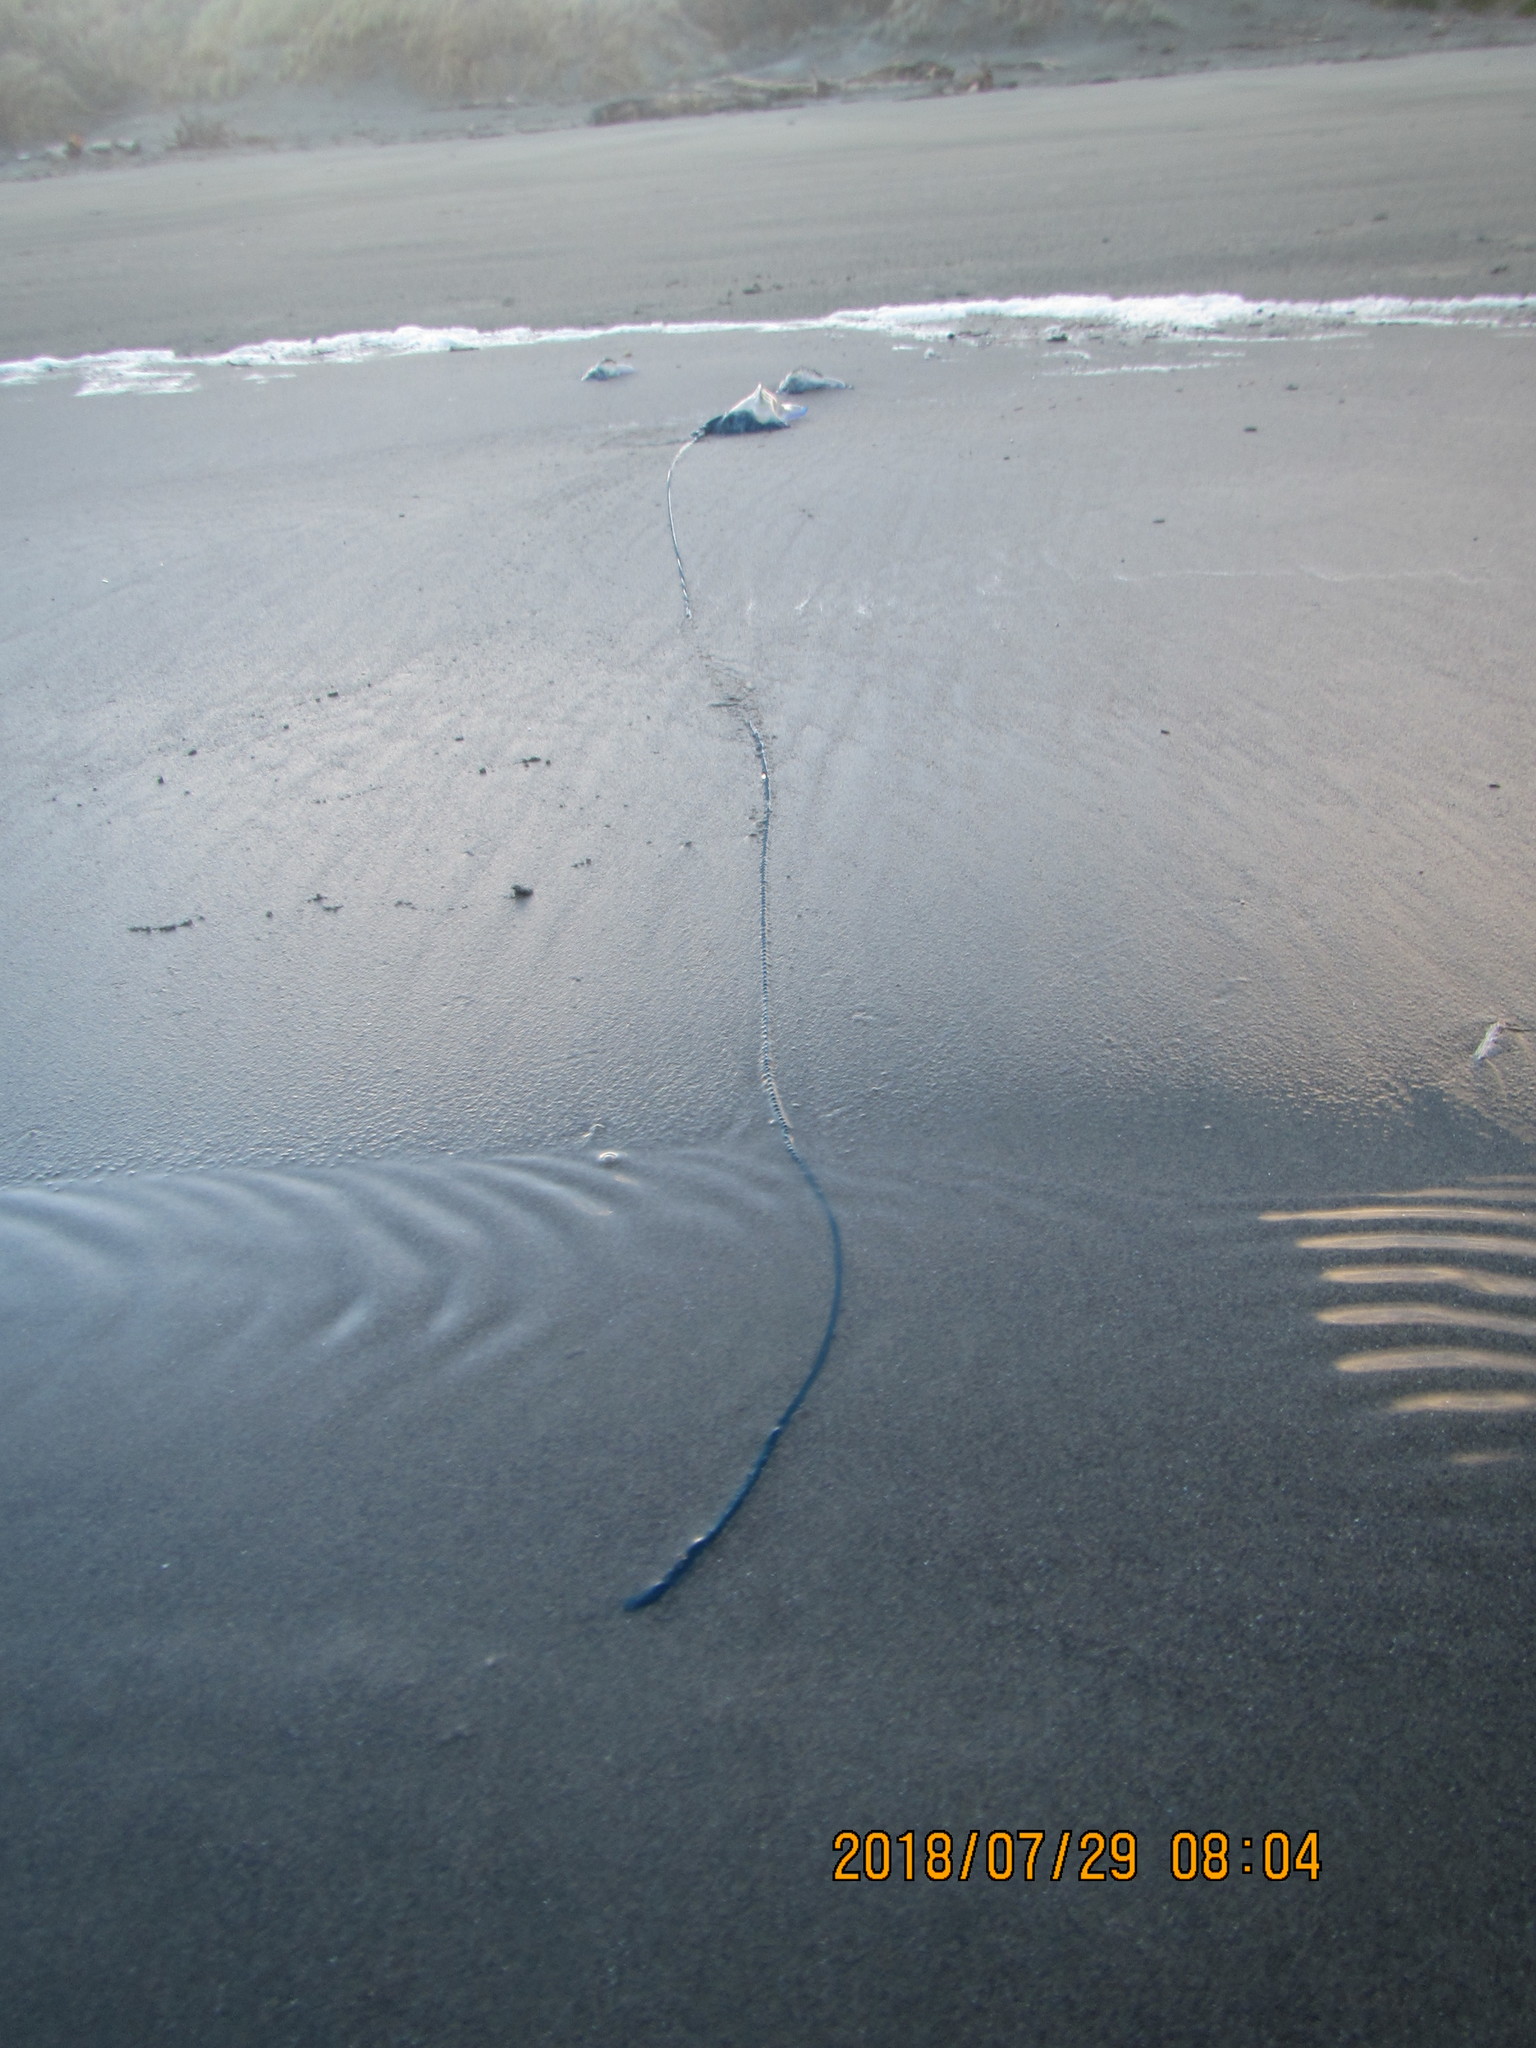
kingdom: Animalia
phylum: Cnidaria
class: Hydrozoa
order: Siphonophorae
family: Physaliidae
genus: Physalia
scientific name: Physalia physalis
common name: Portuguese man-of-war
